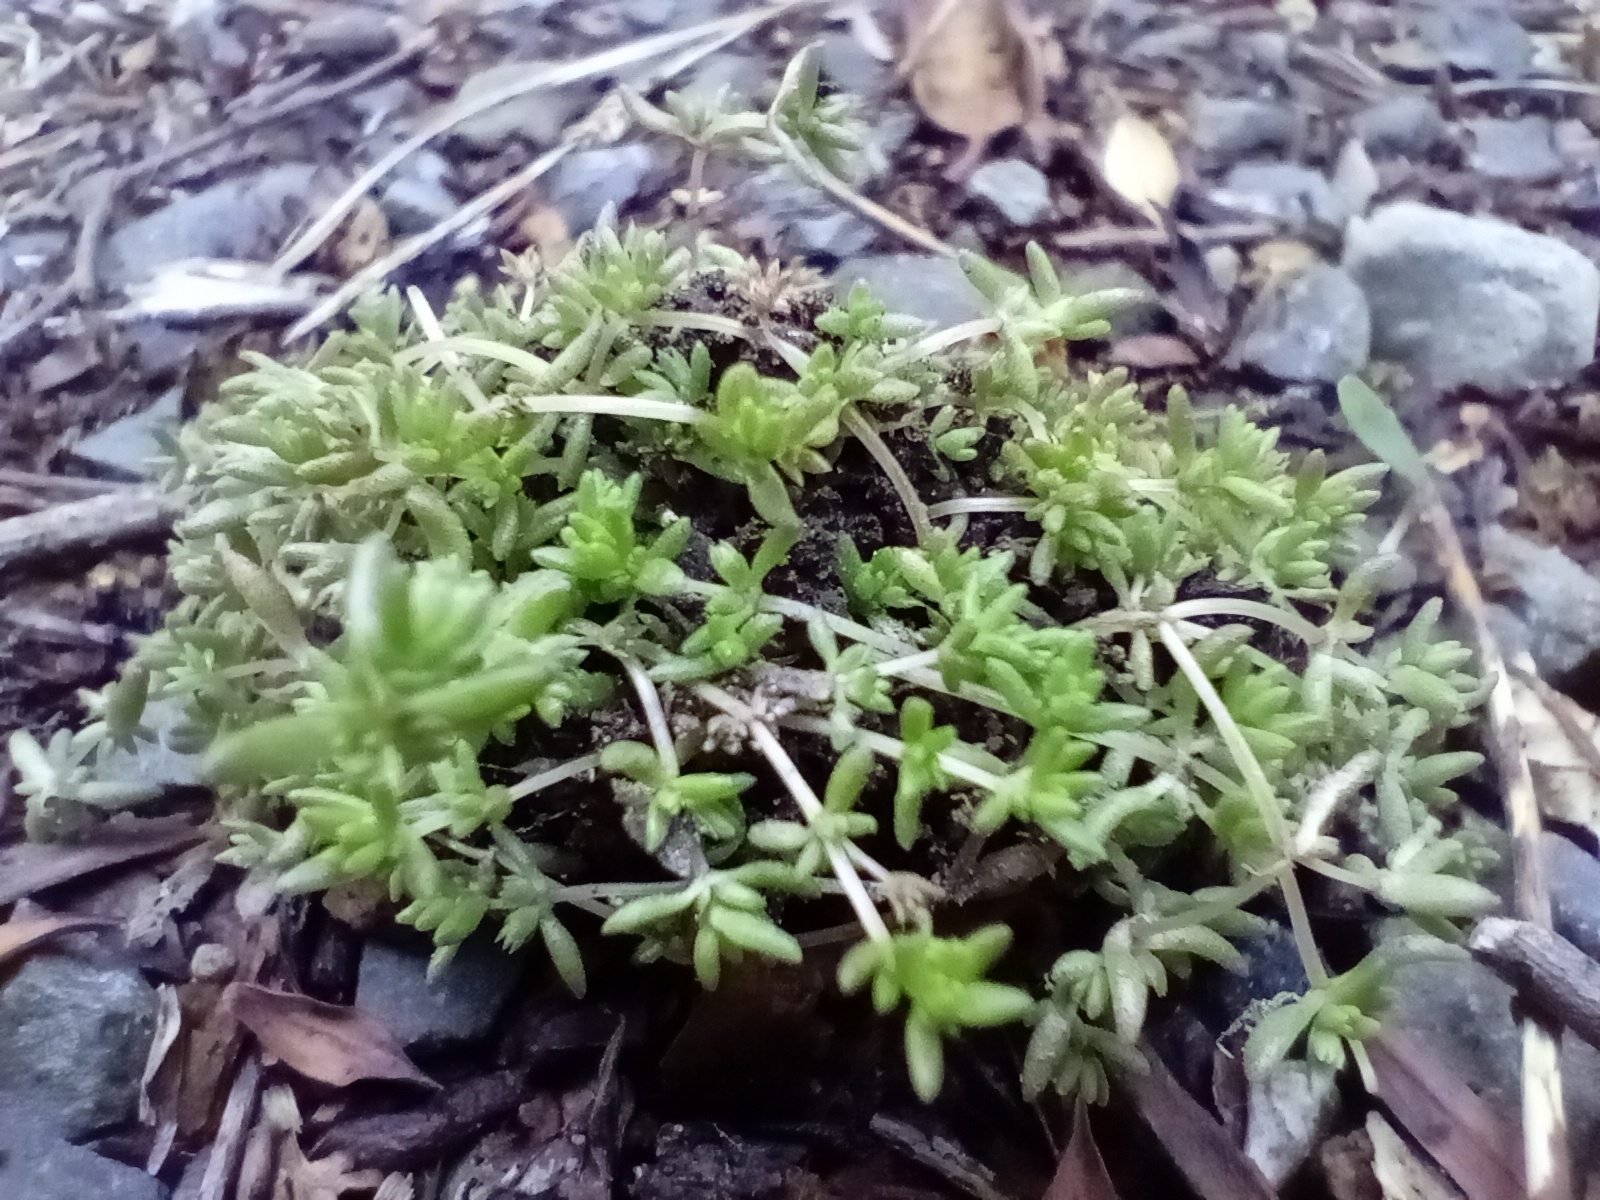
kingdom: Plantae
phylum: Tracheophyta
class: Magnoliopsida
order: Saxifragales
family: Crassulaceae
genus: Crassula
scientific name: Crassula mataikona
